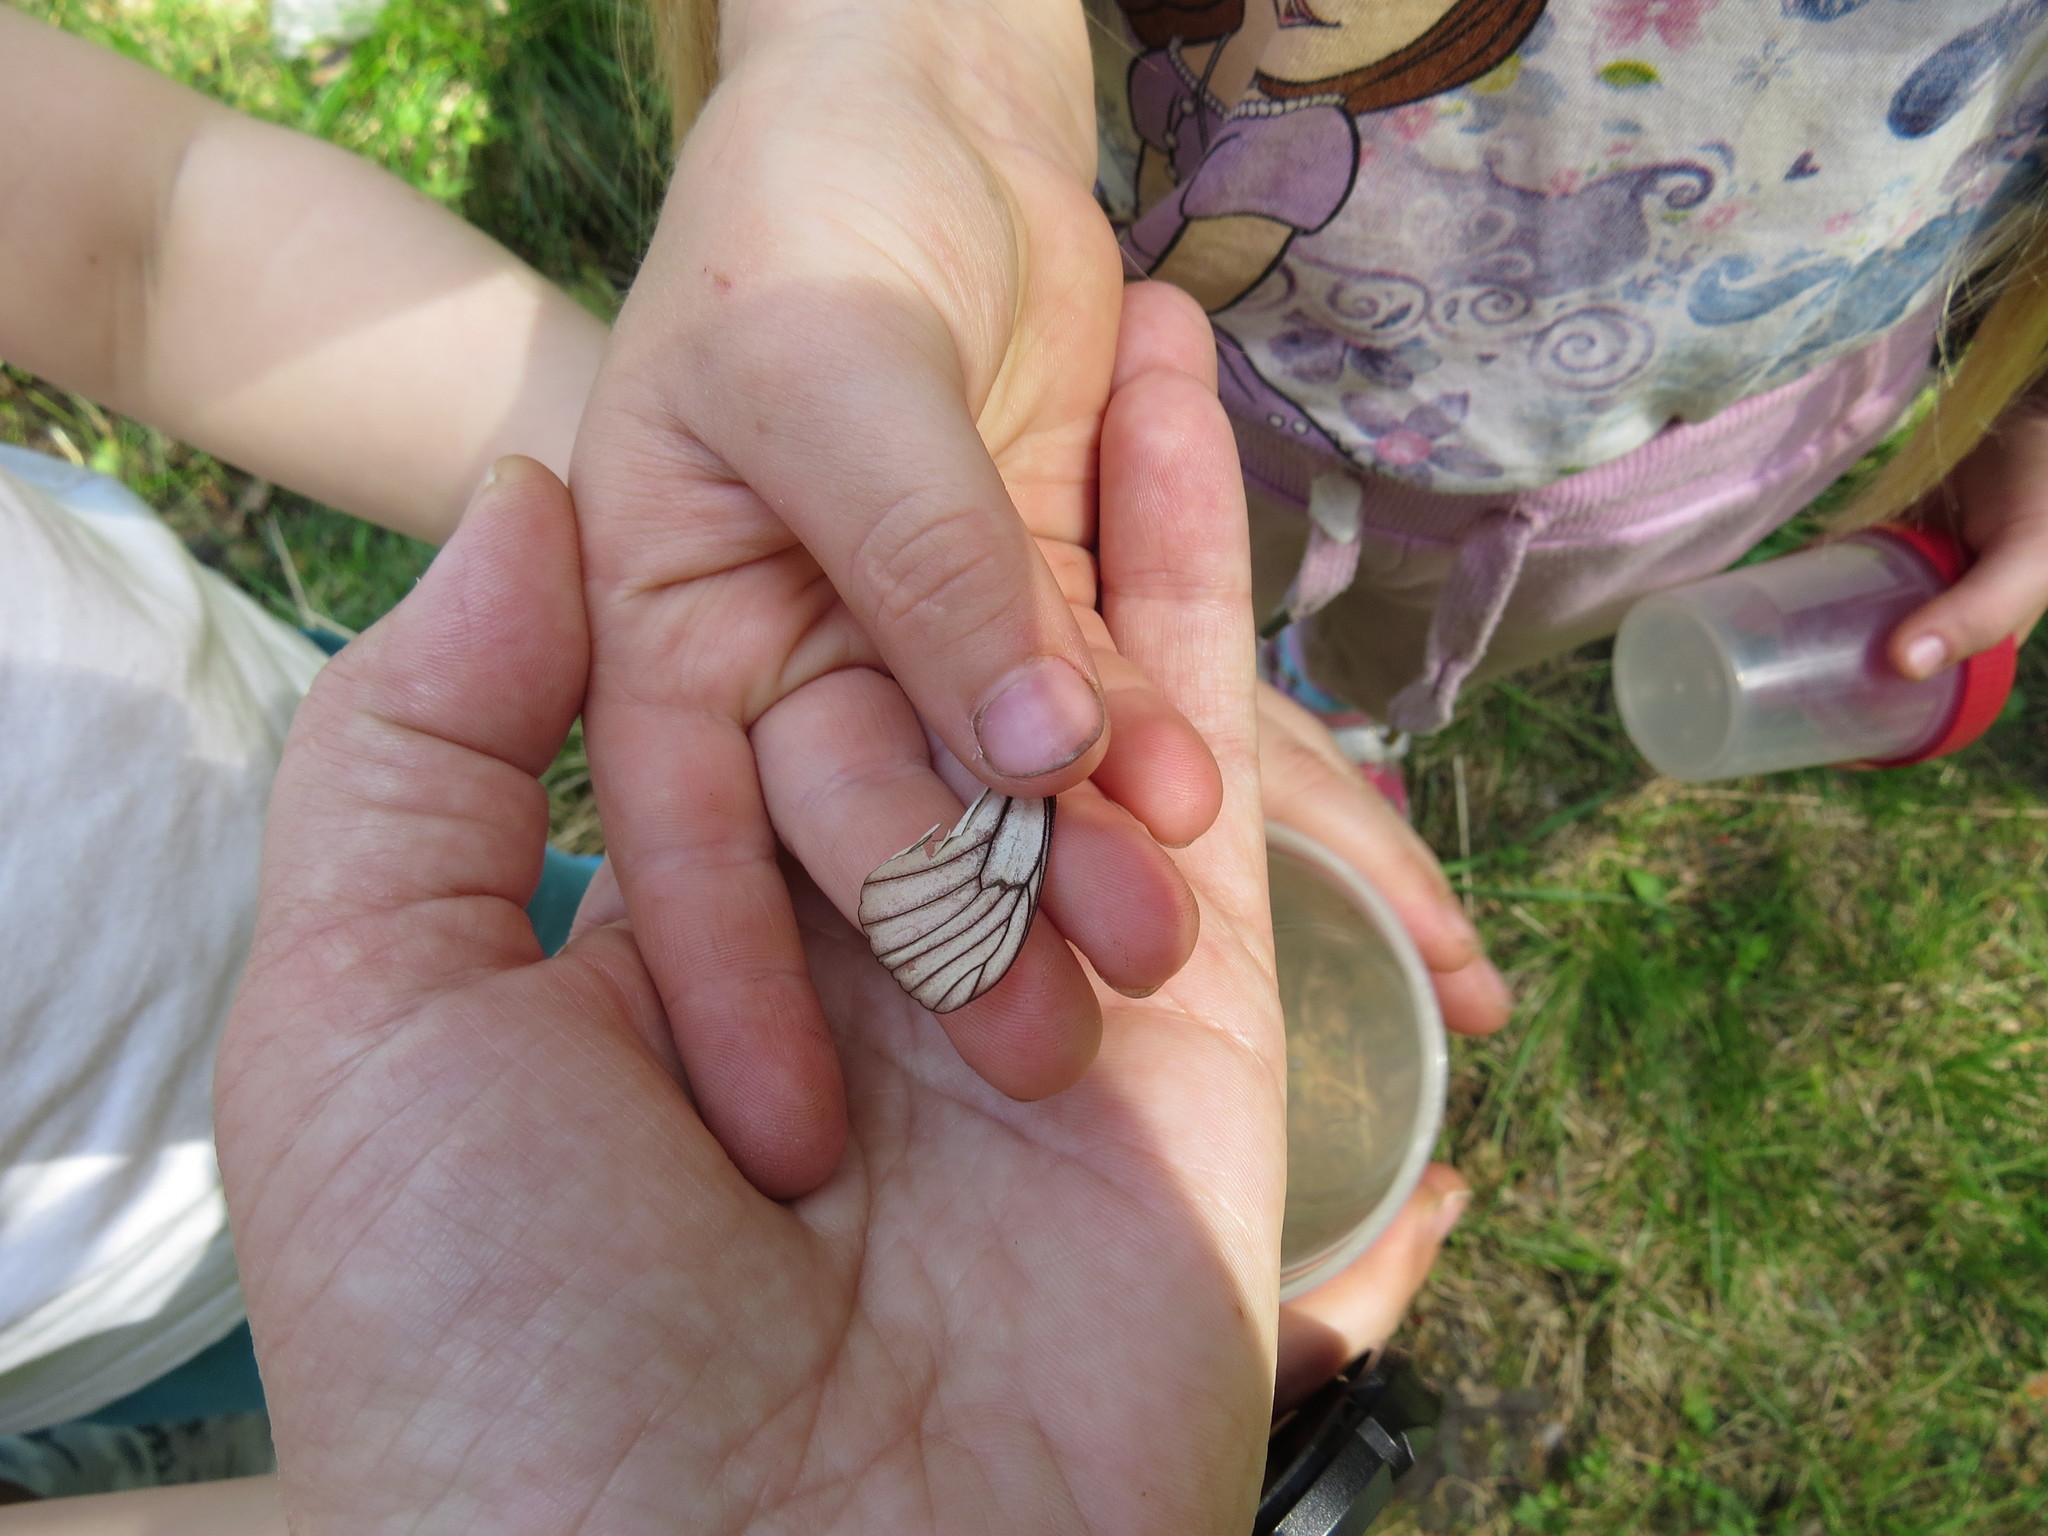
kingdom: Animalia
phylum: Arthropoda
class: Insecta
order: Lepidoptera
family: Pieridae
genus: Aporia
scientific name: Aporia crataegi
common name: Black-veined white
